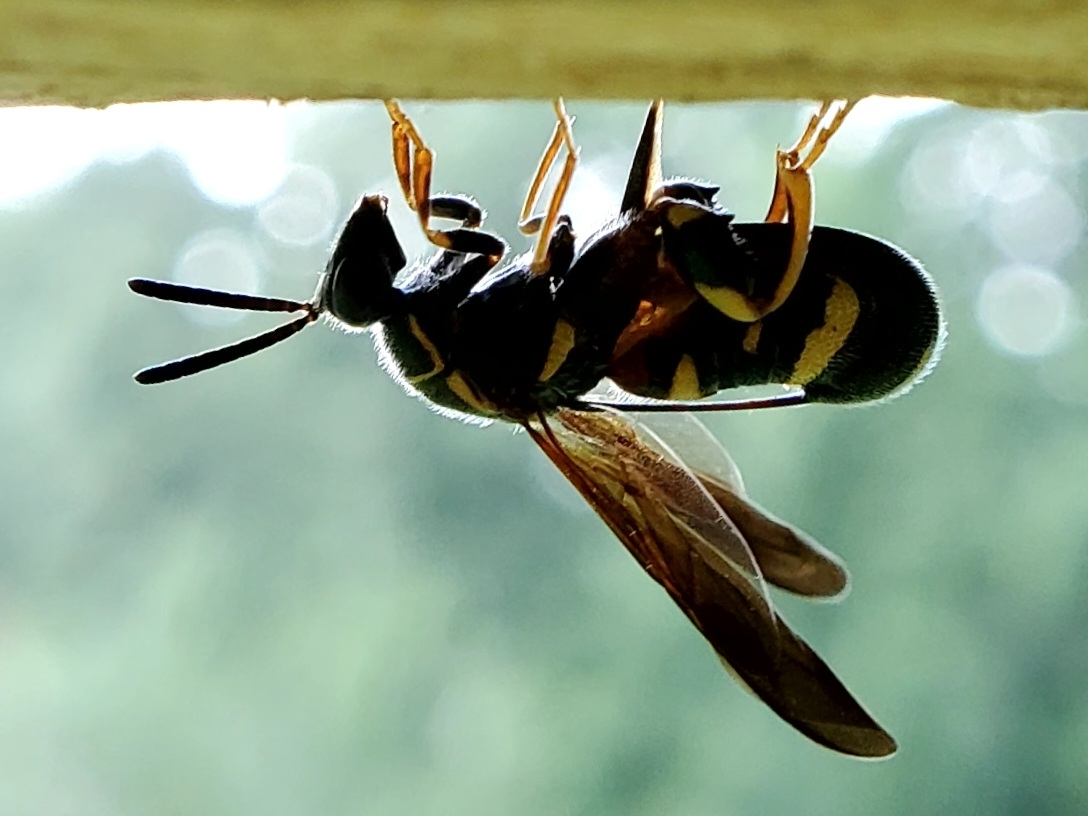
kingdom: Animalia
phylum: Arthropoda
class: Insecta
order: Hymenoptera
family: Leucospidae
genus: Leucospis
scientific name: Leucospis affinis
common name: Wasp
